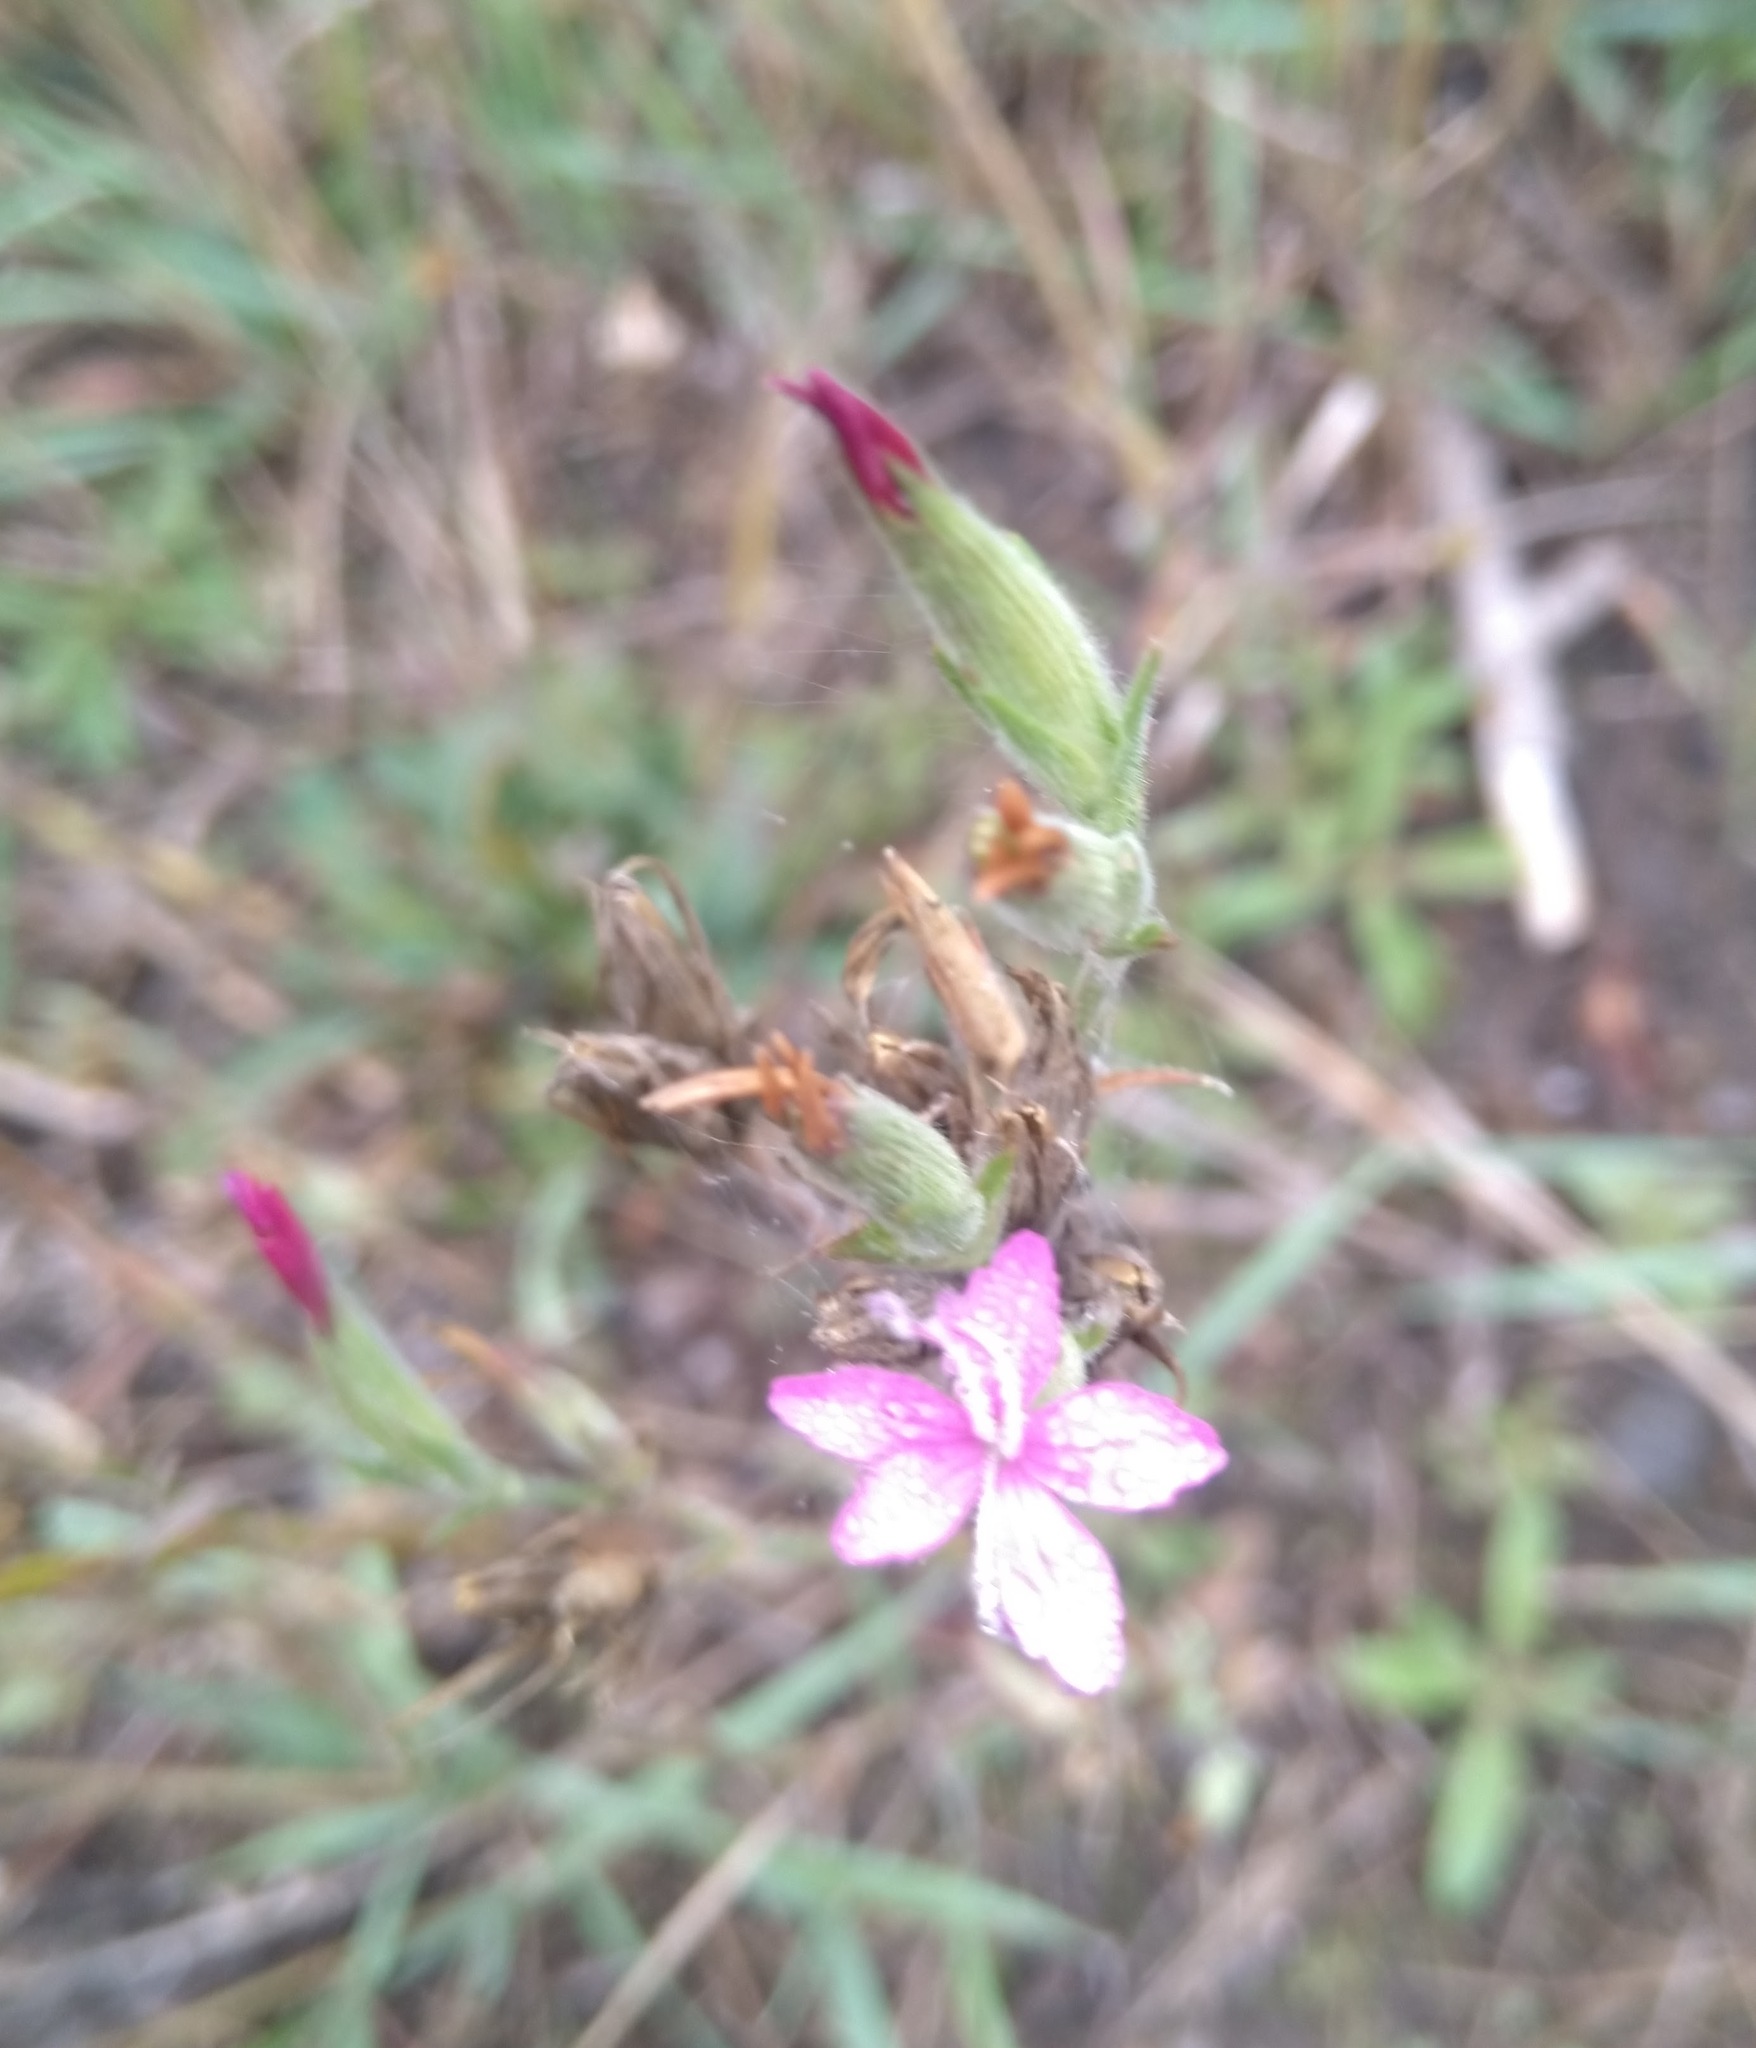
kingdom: Plantae
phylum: Tracheophyta
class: Magnoliopsida
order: Caryophyllales
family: Caryophyllaceae
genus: Dianthus
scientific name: Dianthus armeria
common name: Deptford pink
